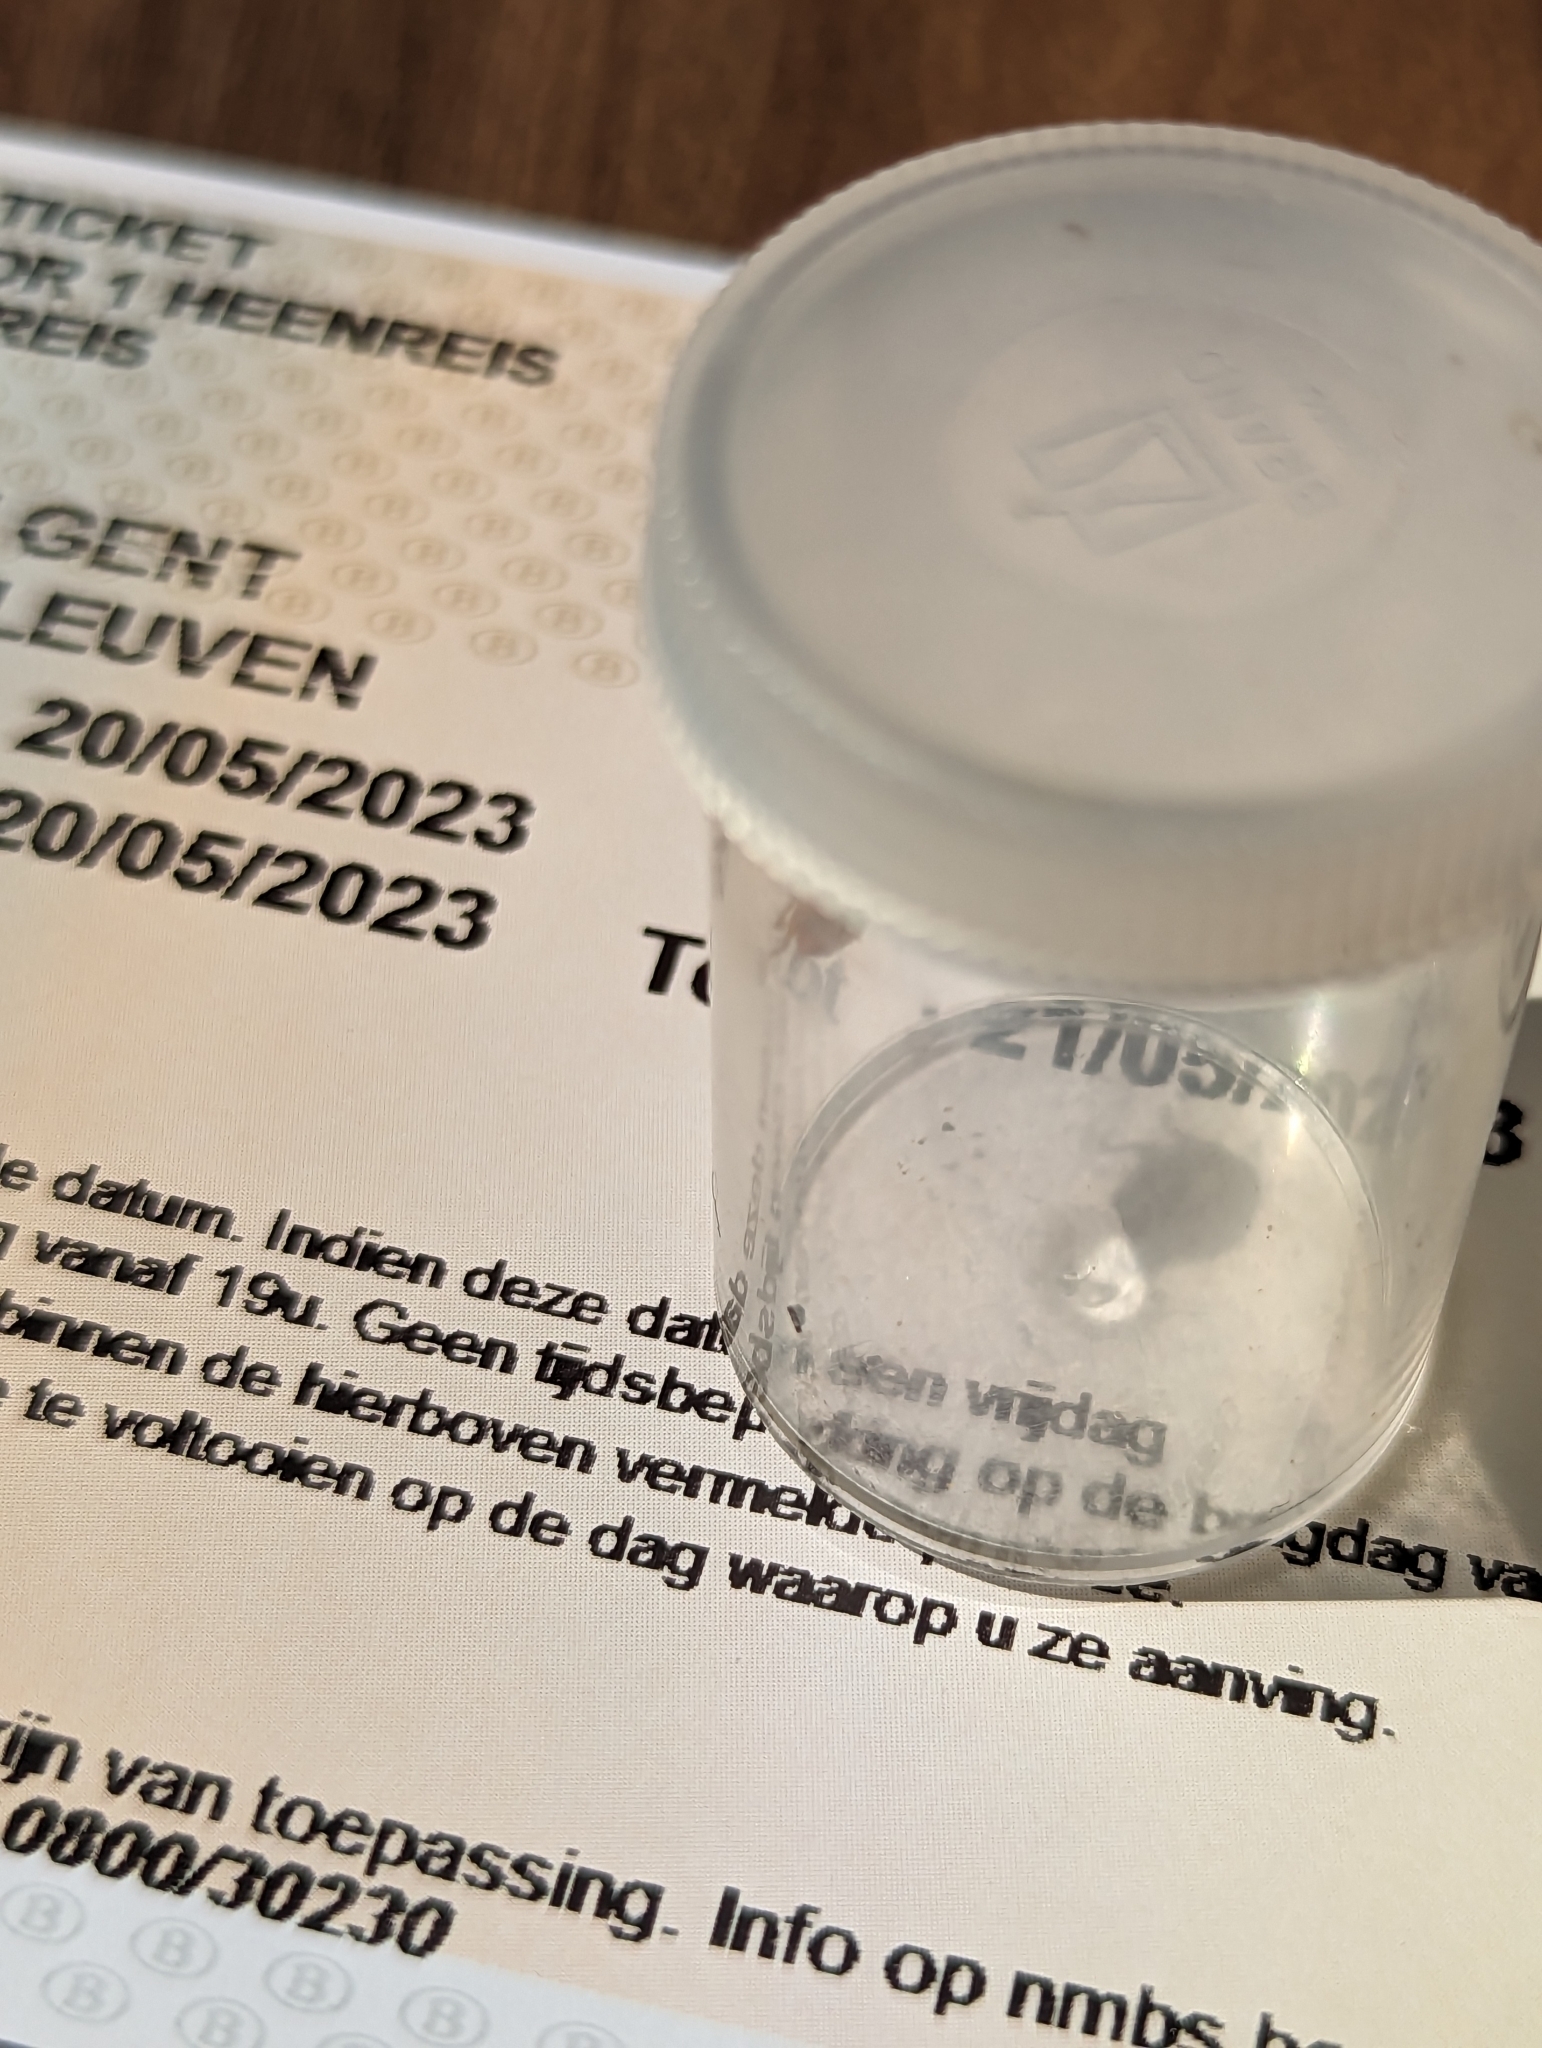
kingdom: Animalia
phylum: Arthropoda
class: Insecta
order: Coleoptera
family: Coccinellidae
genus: Harmonia
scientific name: Harmonia axyridis
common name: Harlequin ladybird
